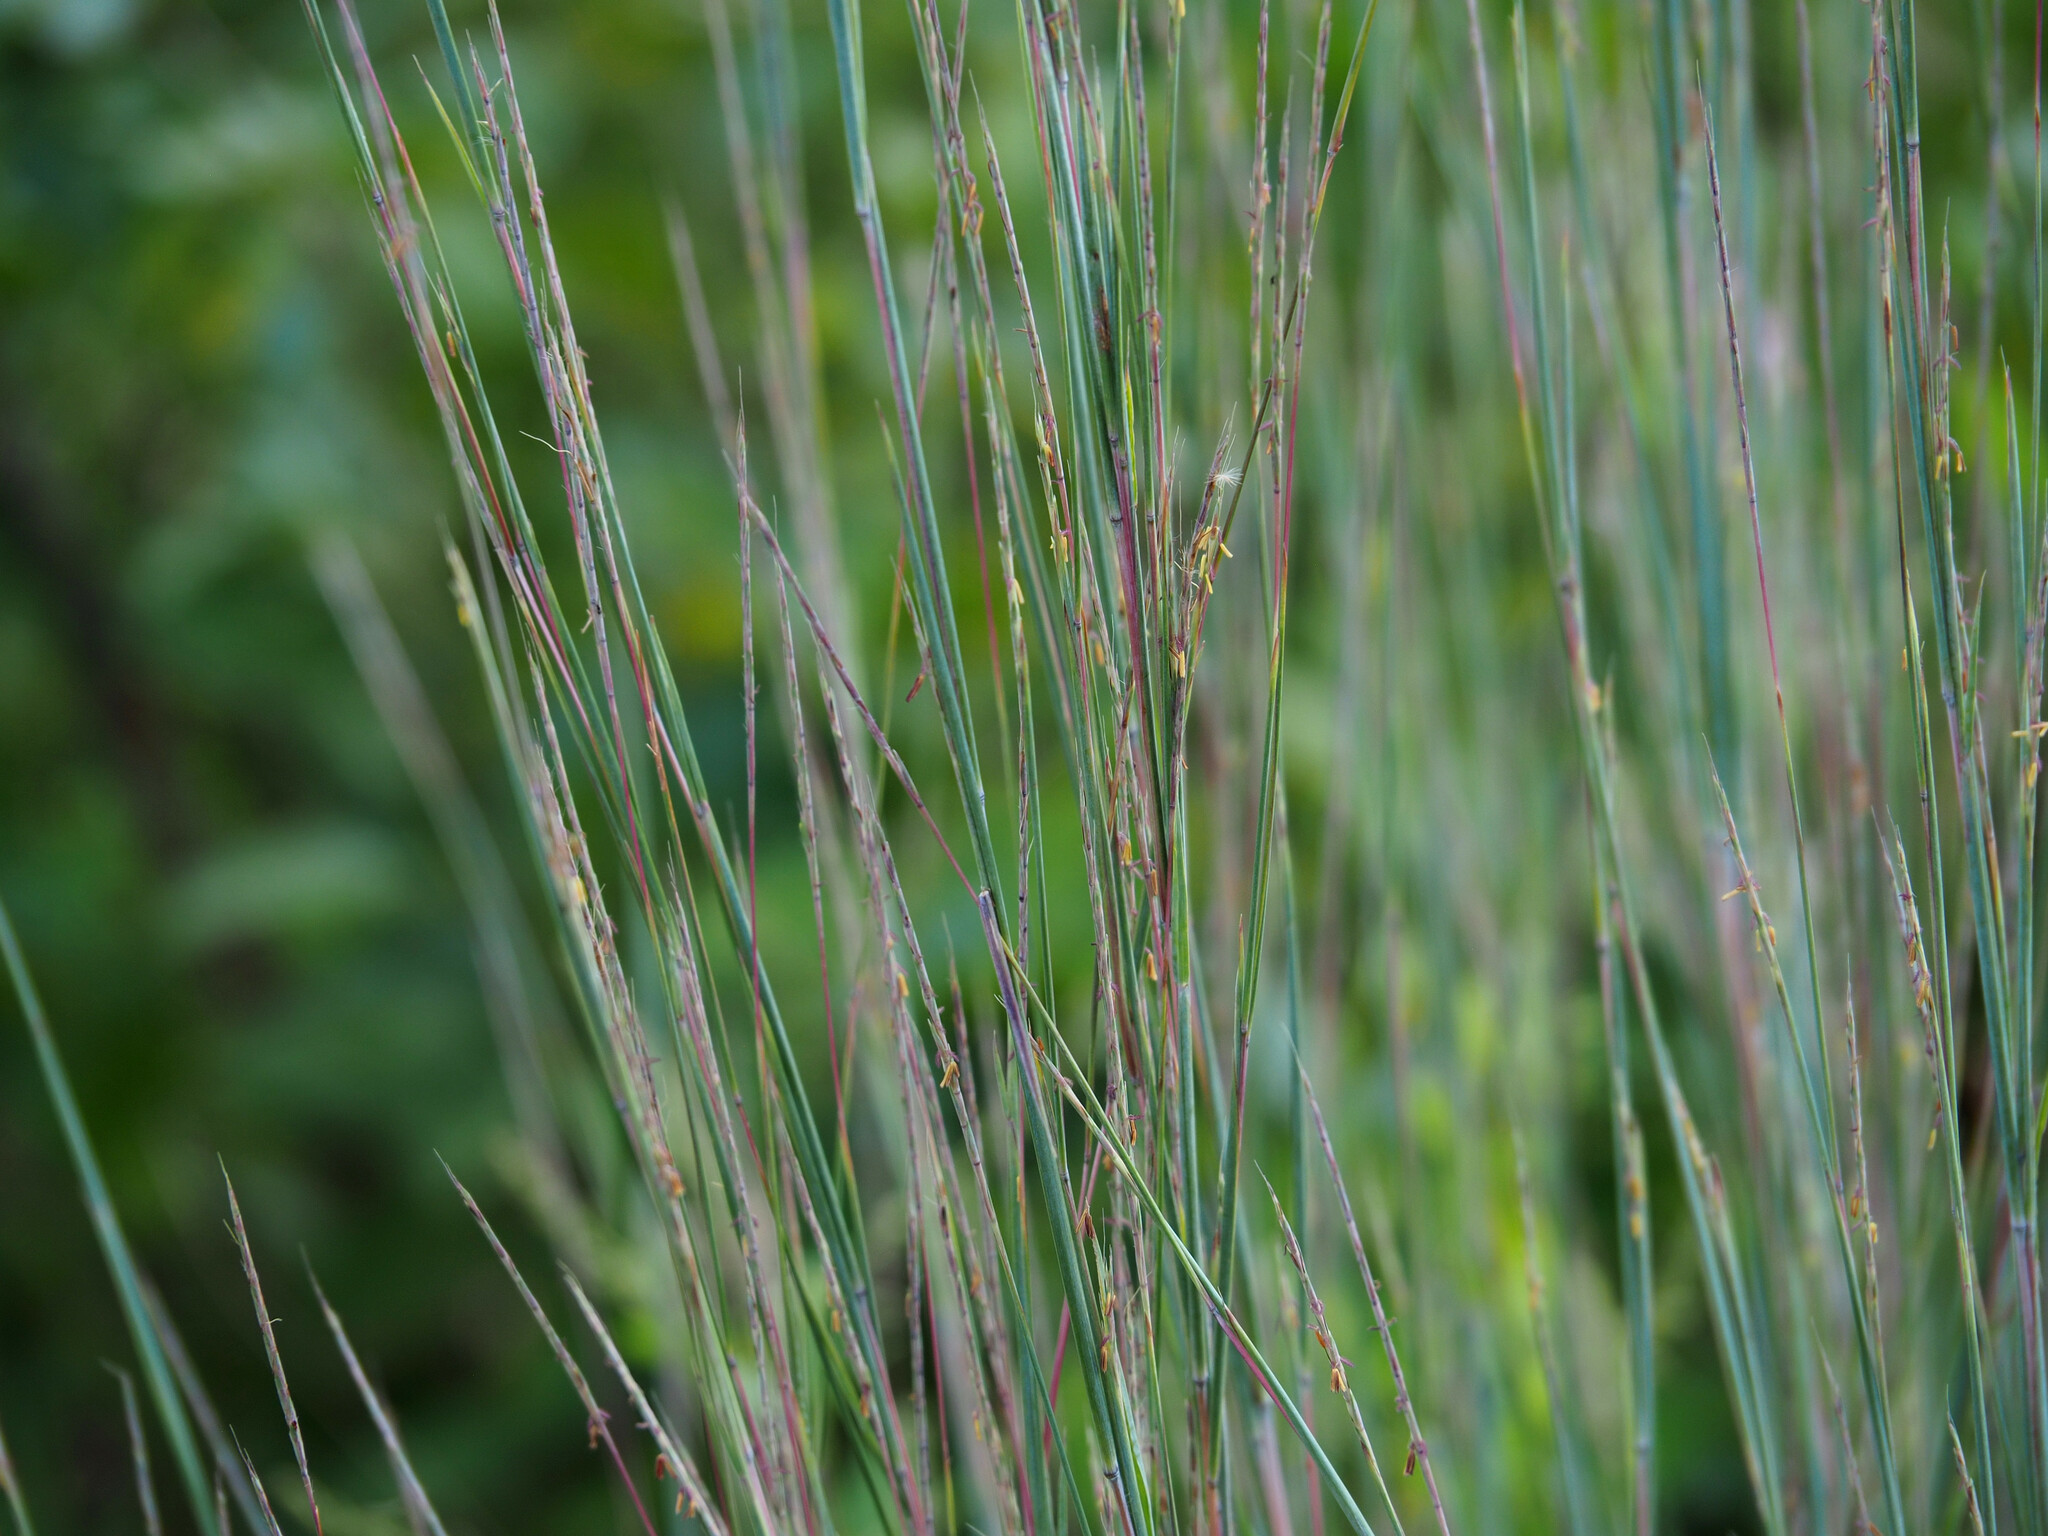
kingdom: Plantae
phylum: Tracheophyta
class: Liliopsida
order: Poales
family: Poaceae
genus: Schizachyrium
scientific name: Schizachyrium scoparium
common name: Little bluestem
